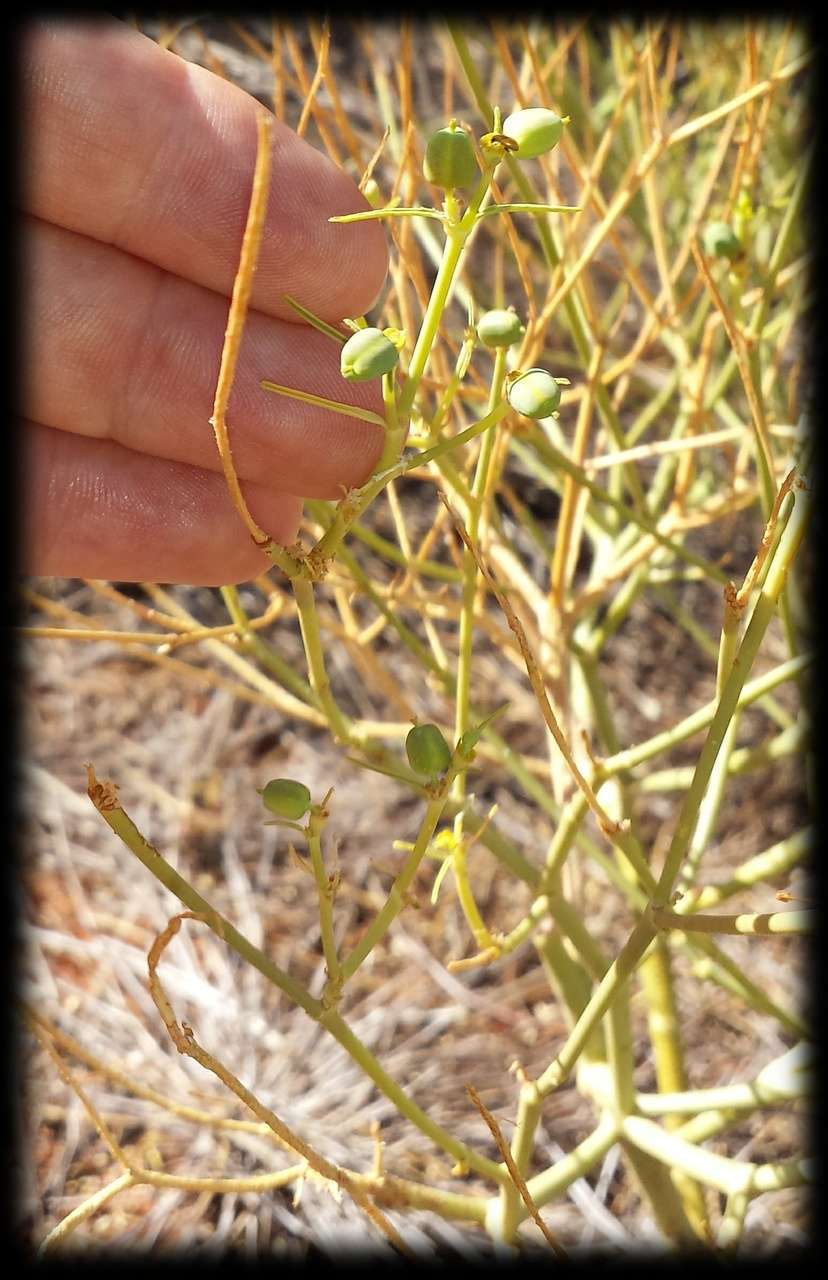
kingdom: Plantae
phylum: Tracheophyta
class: Magnoliopsida
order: Malpighiales
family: Euphorbiaceae
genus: Euphorbia
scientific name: Euphorbia tannensis
